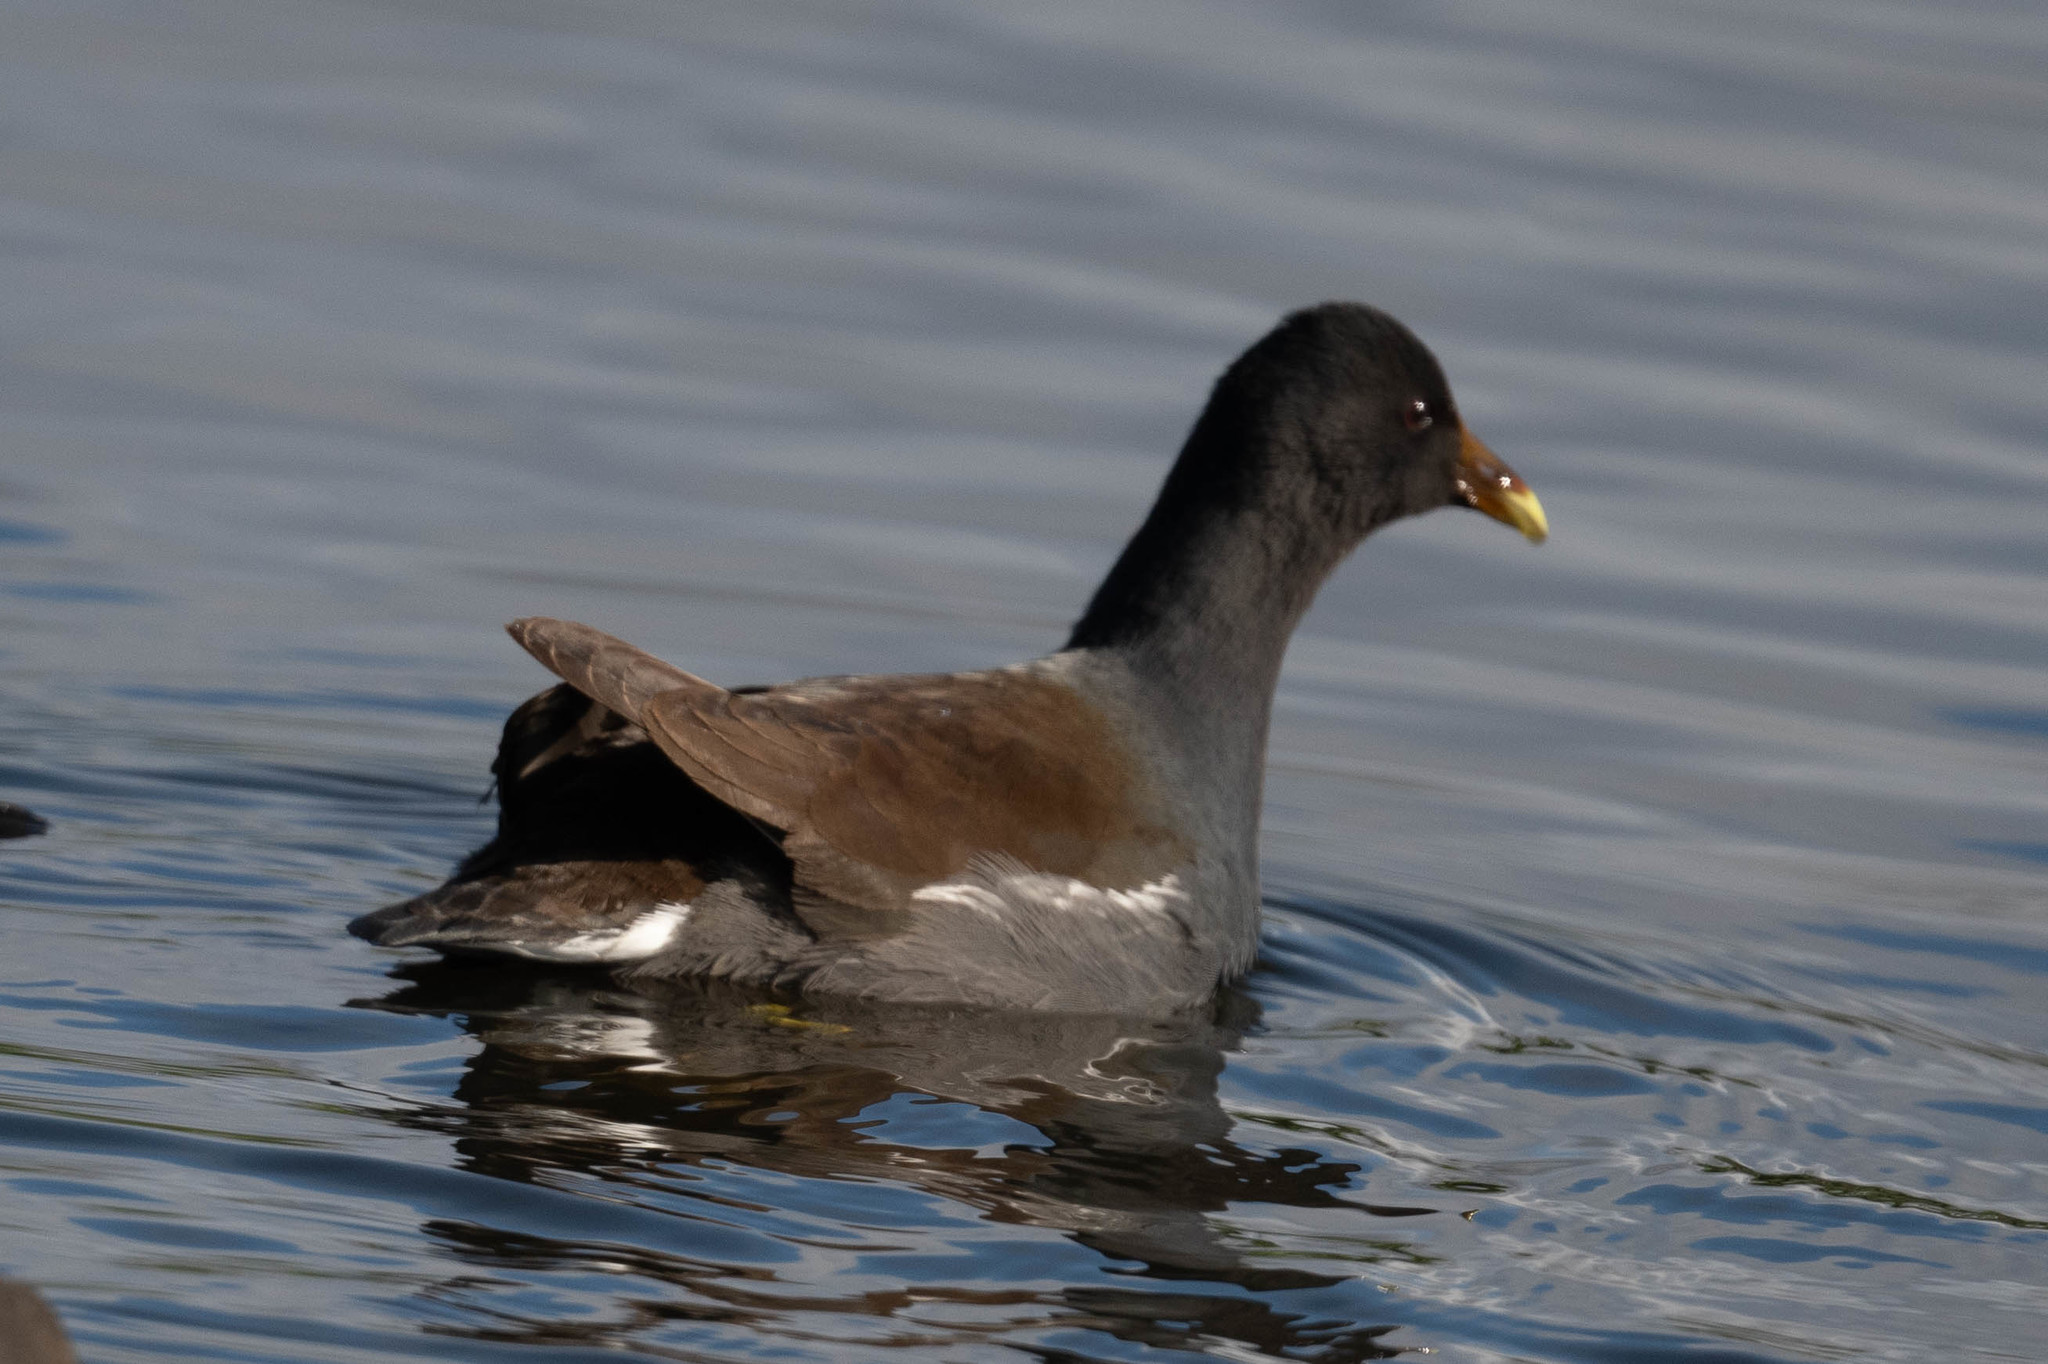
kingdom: Animalia
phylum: Chordata
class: Aves
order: Gruiformes
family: Rallidae
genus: Gallinula
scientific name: Gallinula chloropus
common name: Common moorhen
